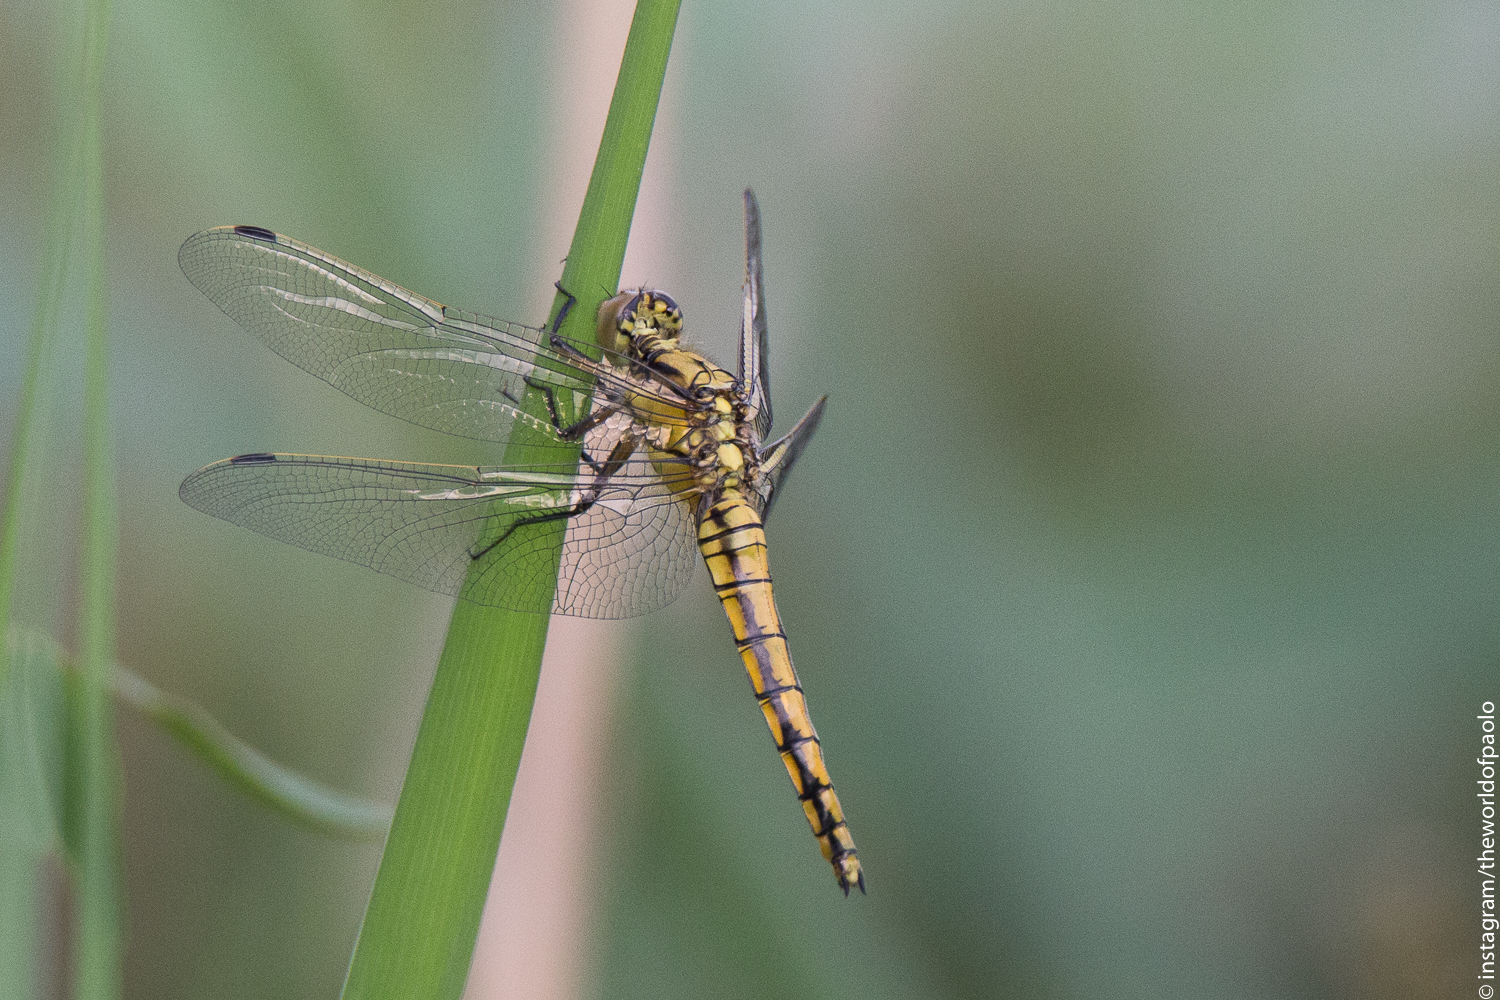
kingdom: Animalia
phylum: Arthropoda
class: Insecta
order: Odonata
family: Libellulidae
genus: Orthetrum
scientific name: Orthetrum cancellatum
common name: Black-tailed skimmer
